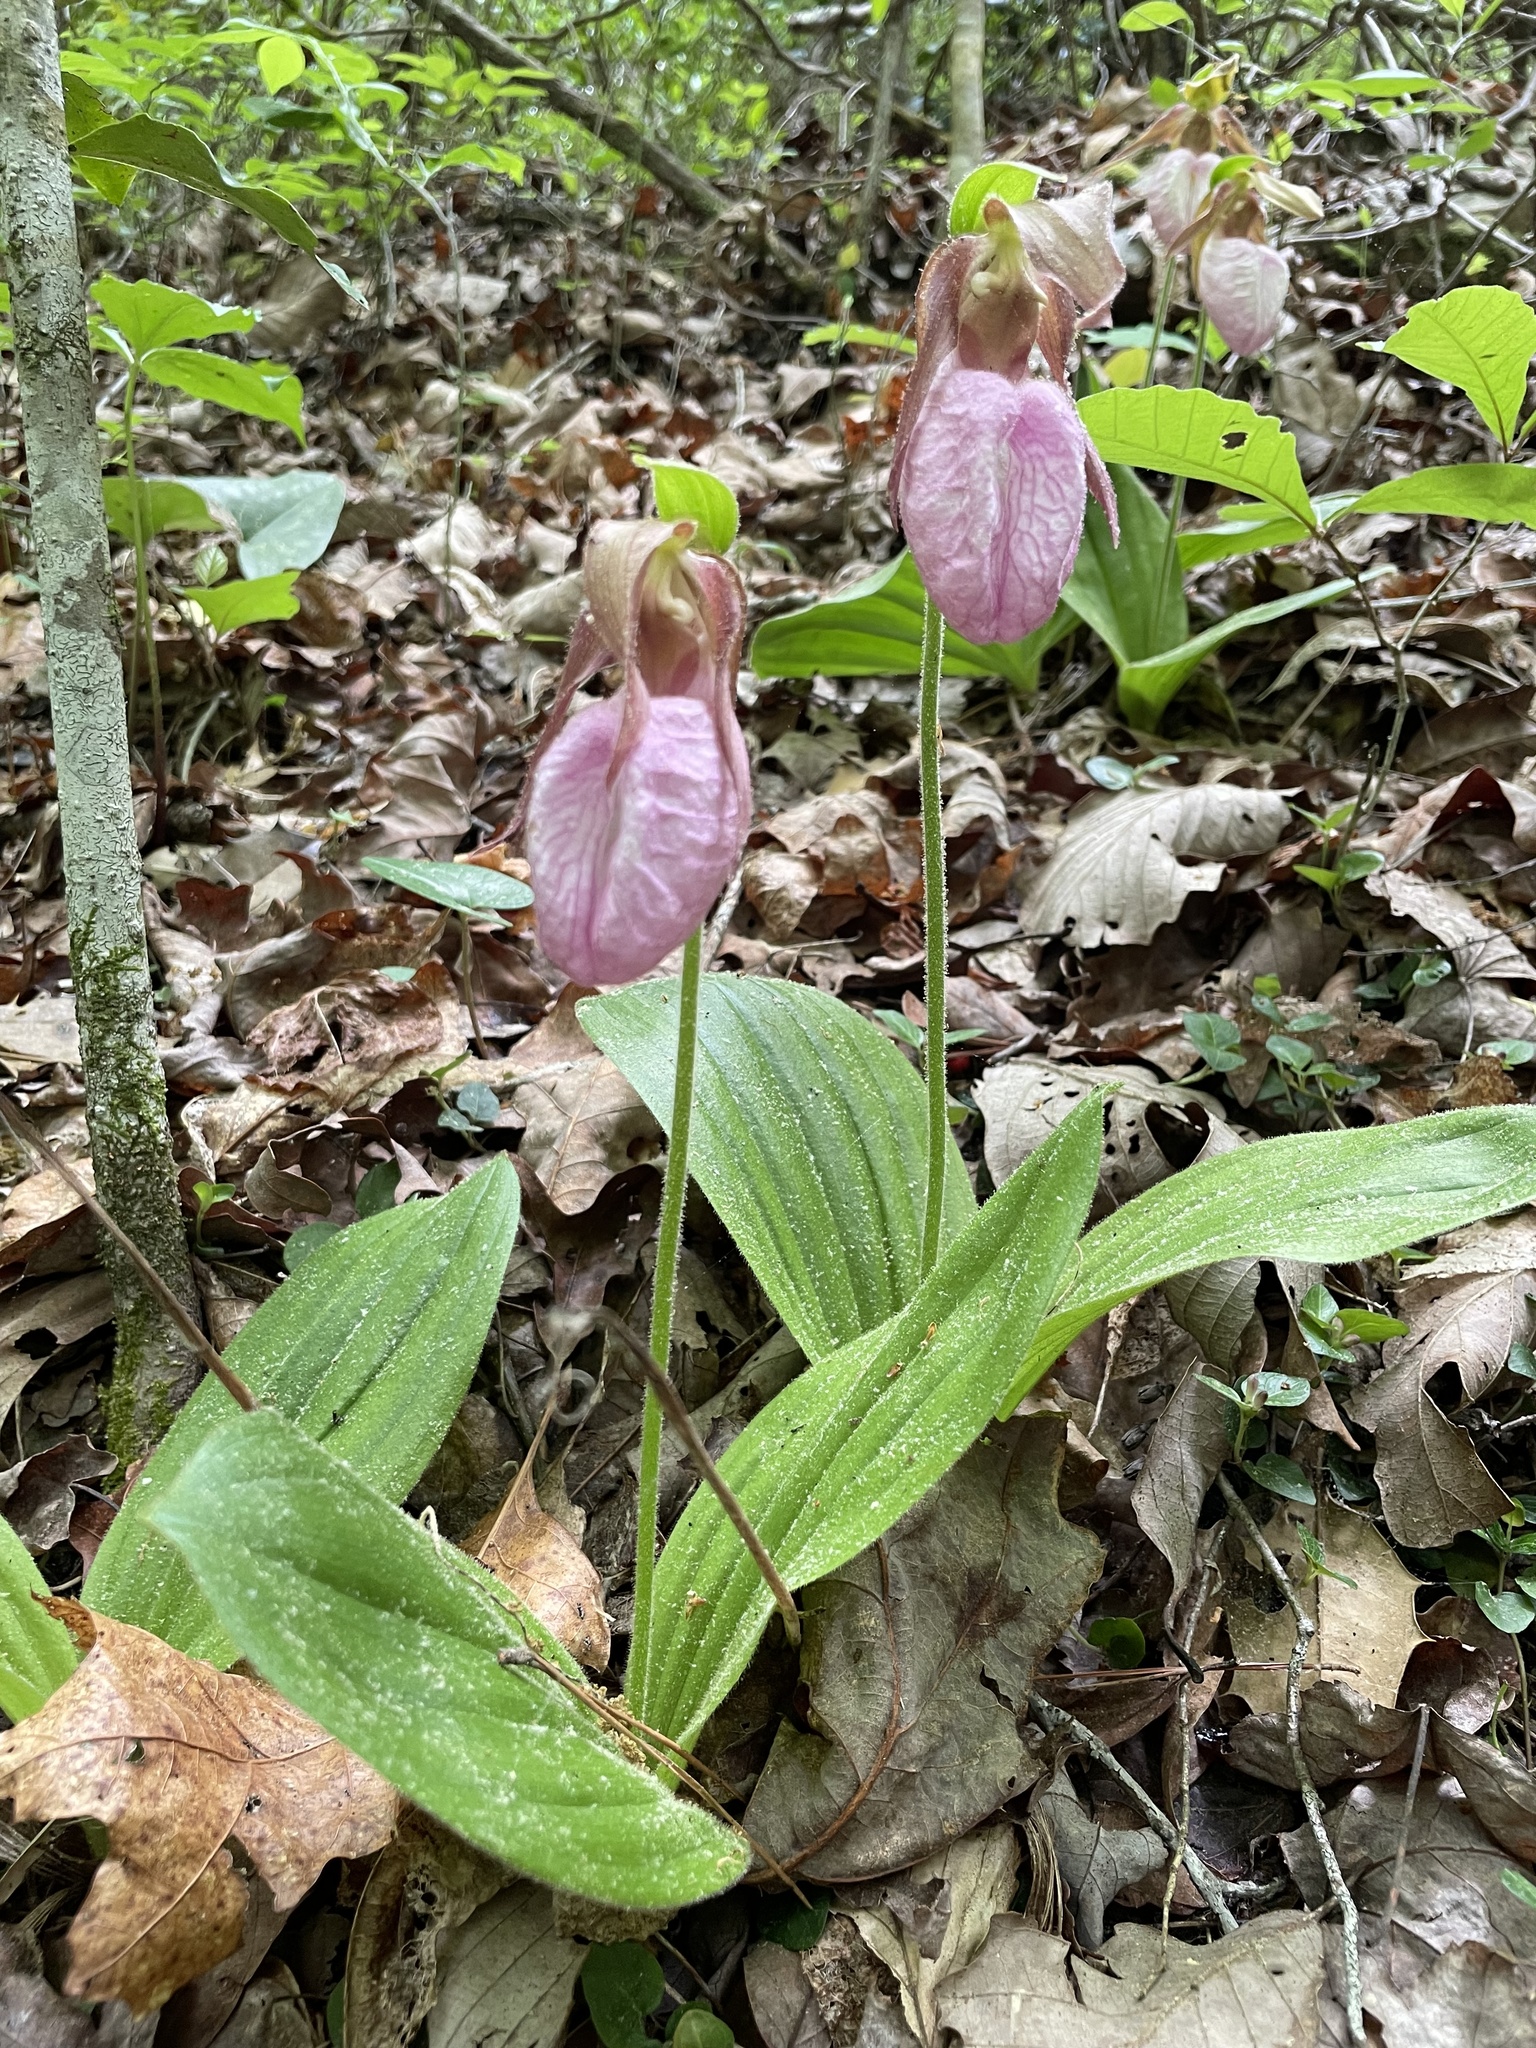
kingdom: Plantae
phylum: Tracheophyta
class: Liliopsida
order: Asparagales
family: Orchidaceae
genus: Cypripedium
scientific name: Cypripedium acaule
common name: Pink lady's-slipper
